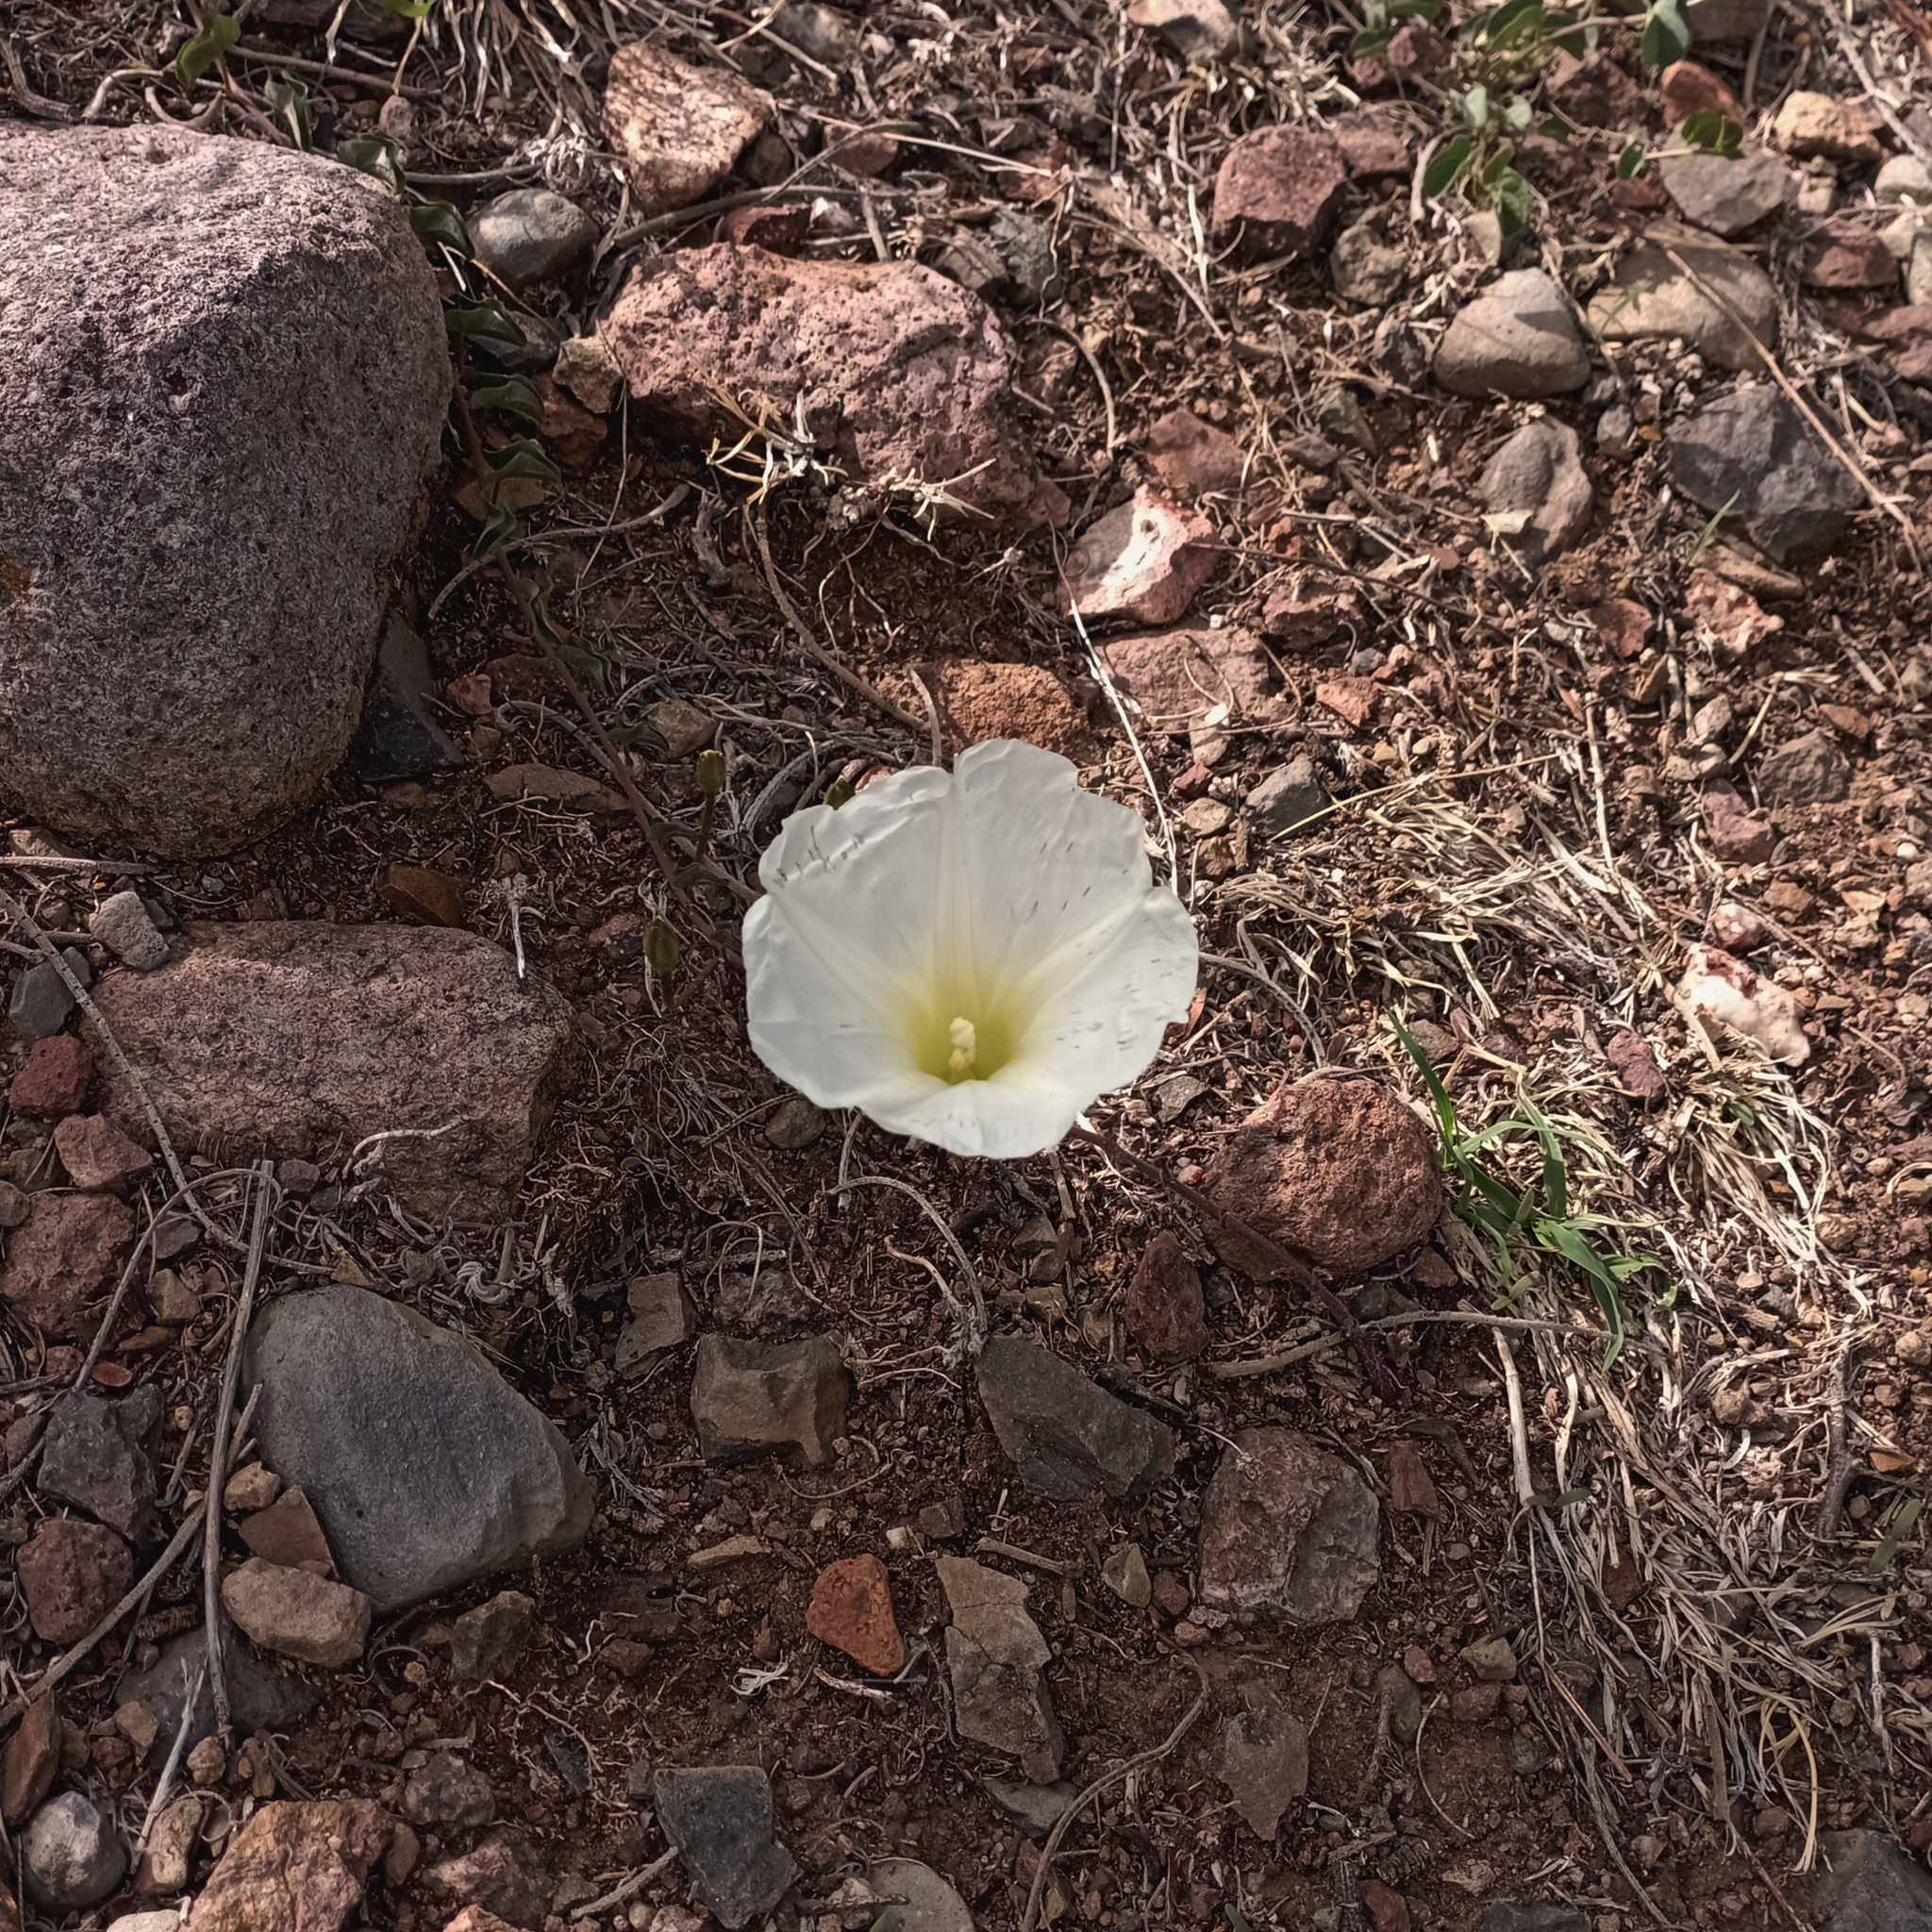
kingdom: Plantae
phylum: Tracheophyta
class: Magnoliopsida
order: Solanales
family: Convolvulaceae
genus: Ipomoea
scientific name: Ipomoea hartwegii
